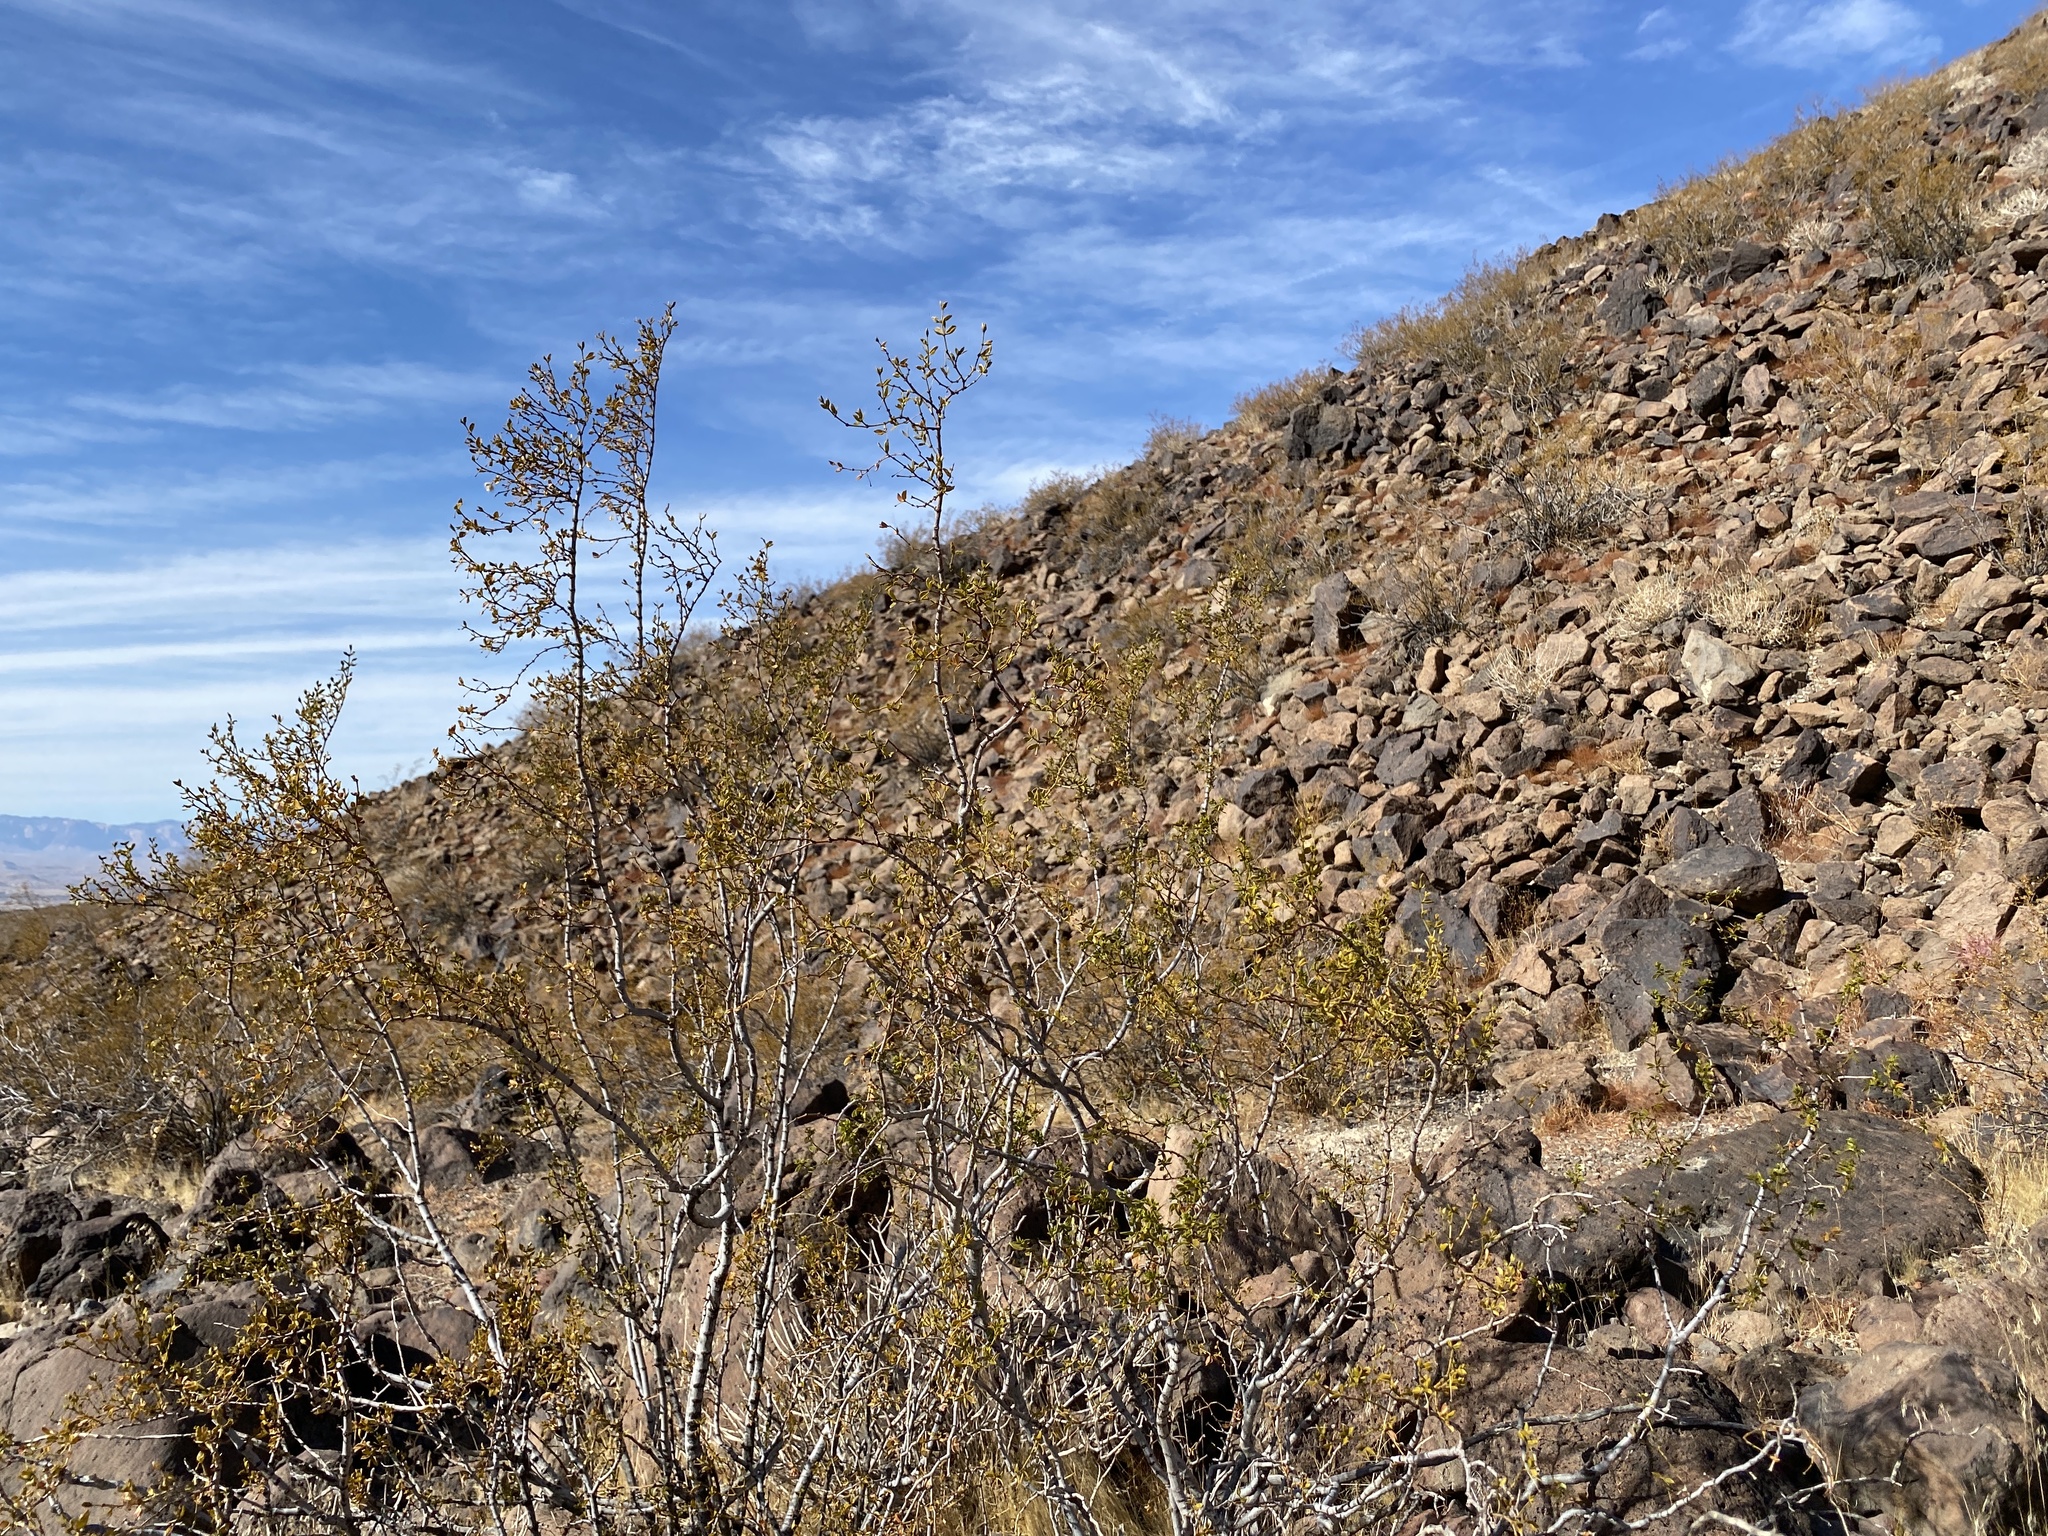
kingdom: Plantae
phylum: Tracheophyta
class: Magnoliopsida
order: Zygophyllales
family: Zygophyllaceae
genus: Larrea
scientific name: Larrea tridentata
